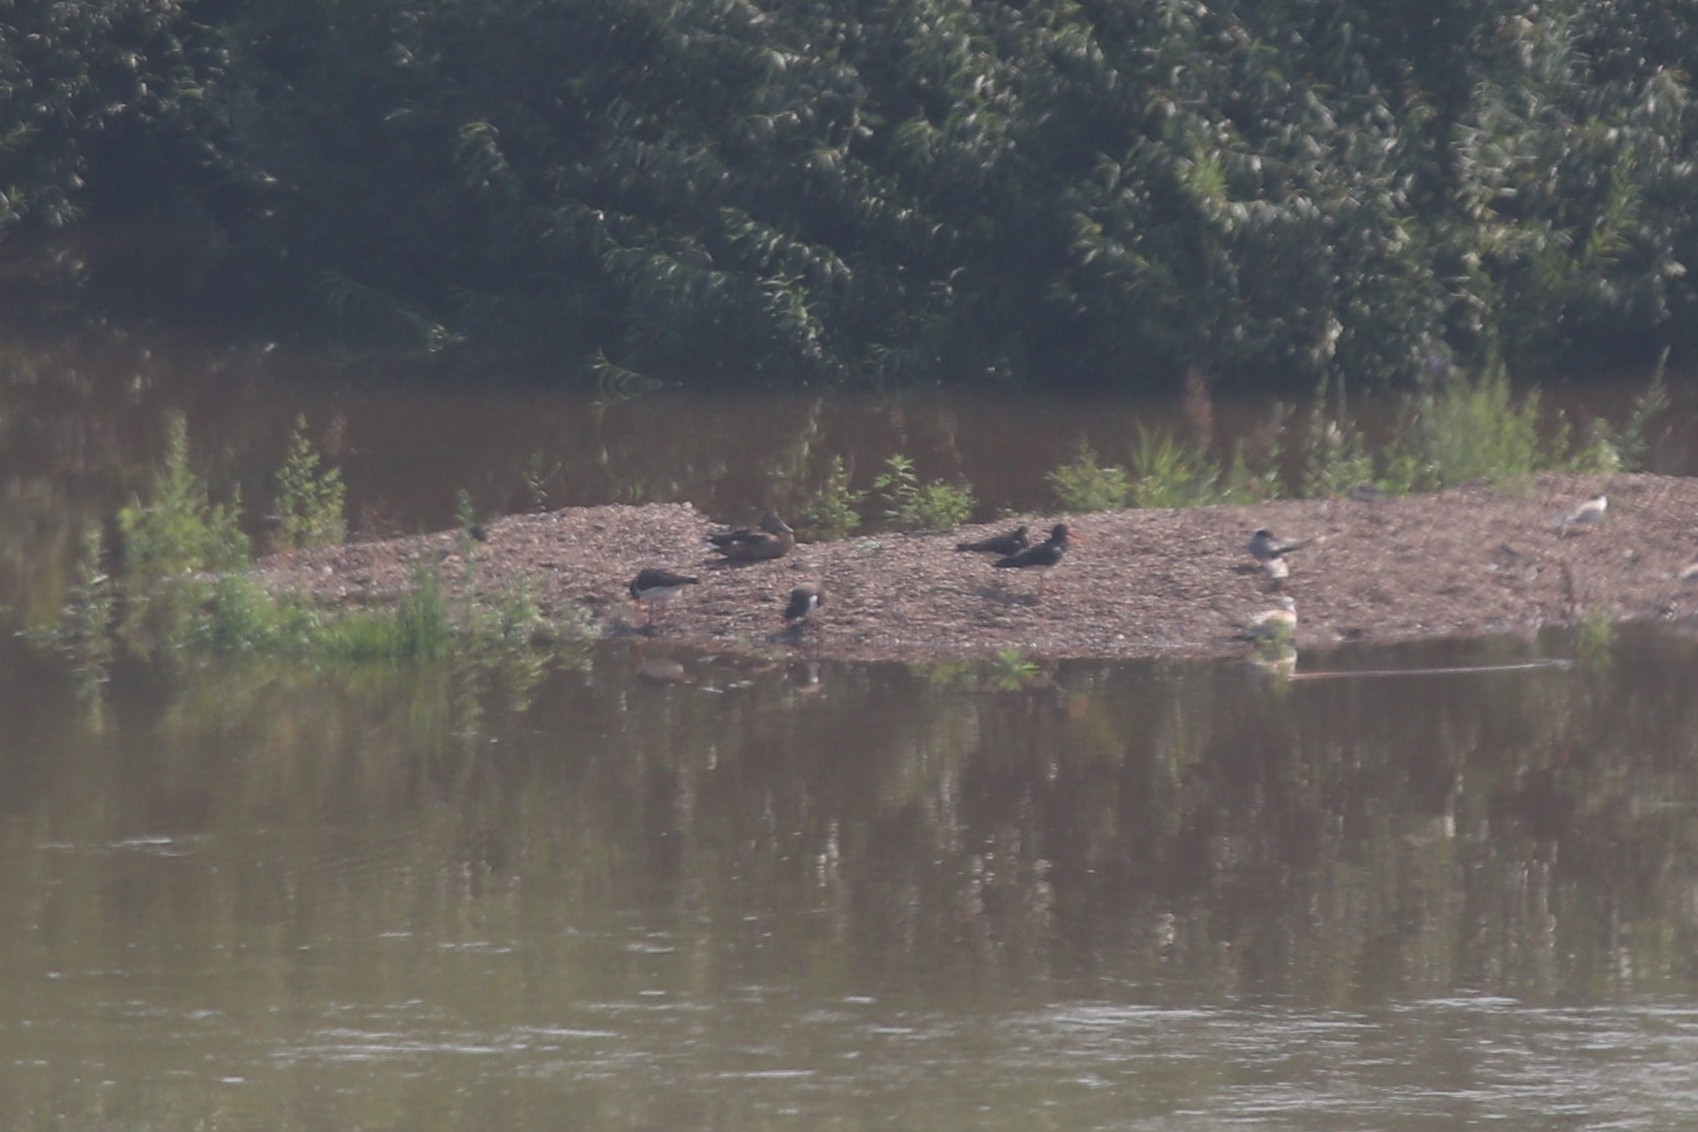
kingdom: Animalia
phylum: Chordata
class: Aves
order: Charadriiformes
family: Haematopodidae
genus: Haematopus
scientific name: Haematopus ostralegus
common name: Eurasian oystercatcher
